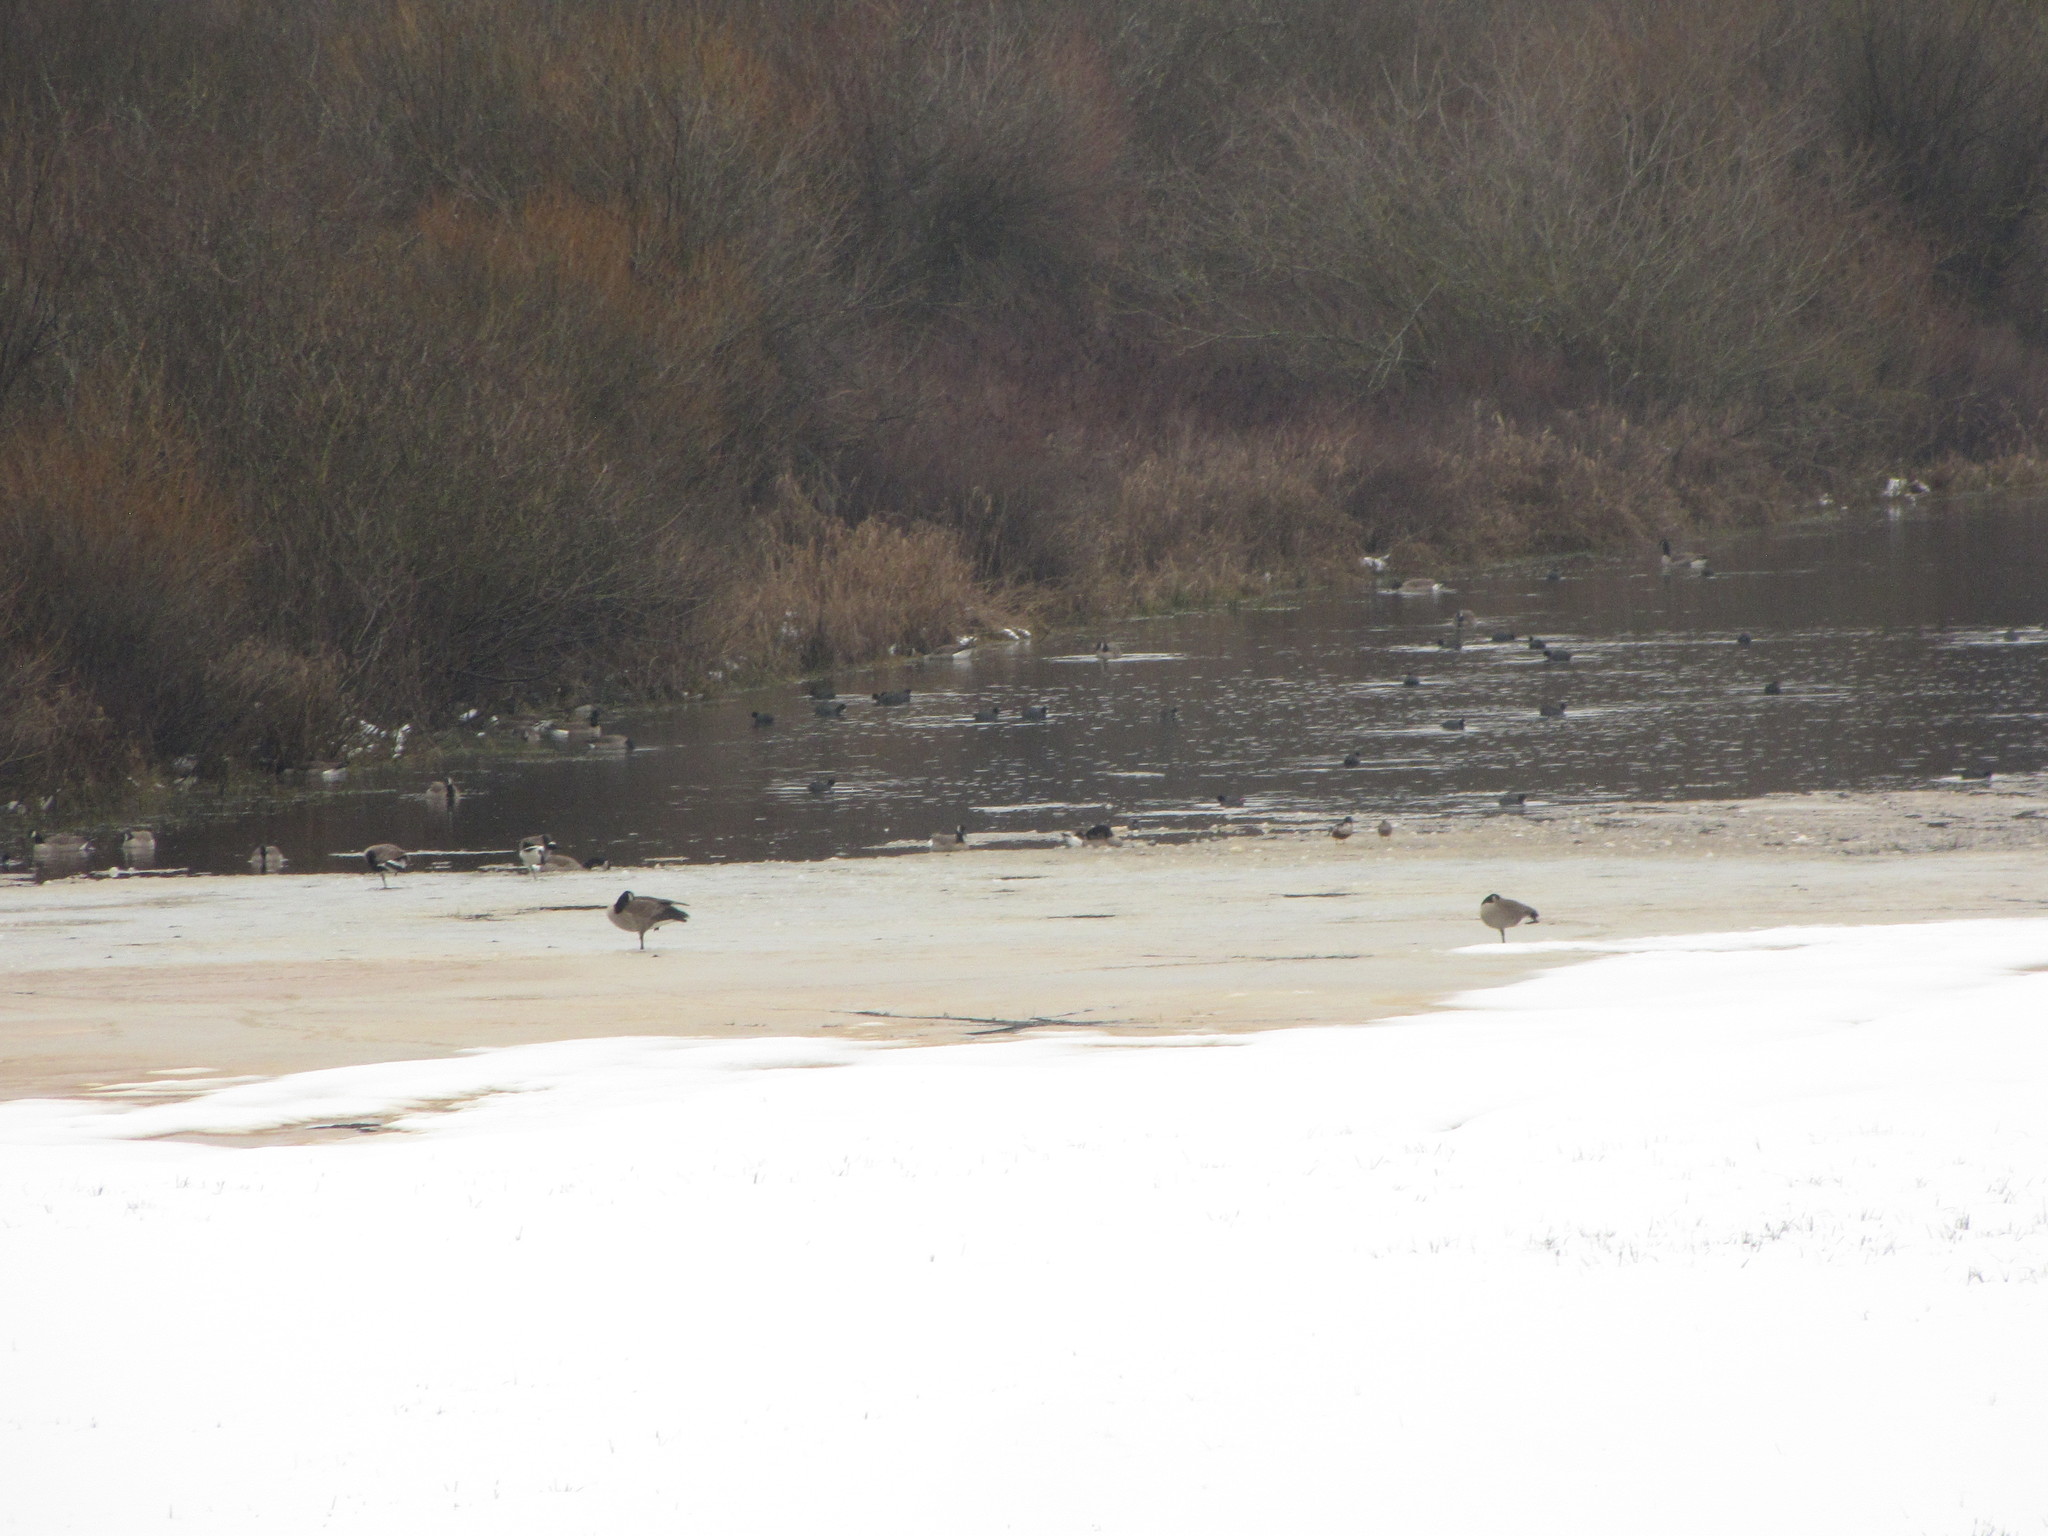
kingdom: Animalia
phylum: Chordata
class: Aves
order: Gruiformes
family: Rallidae
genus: Fulica
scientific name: Fulica americana
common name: American coot
